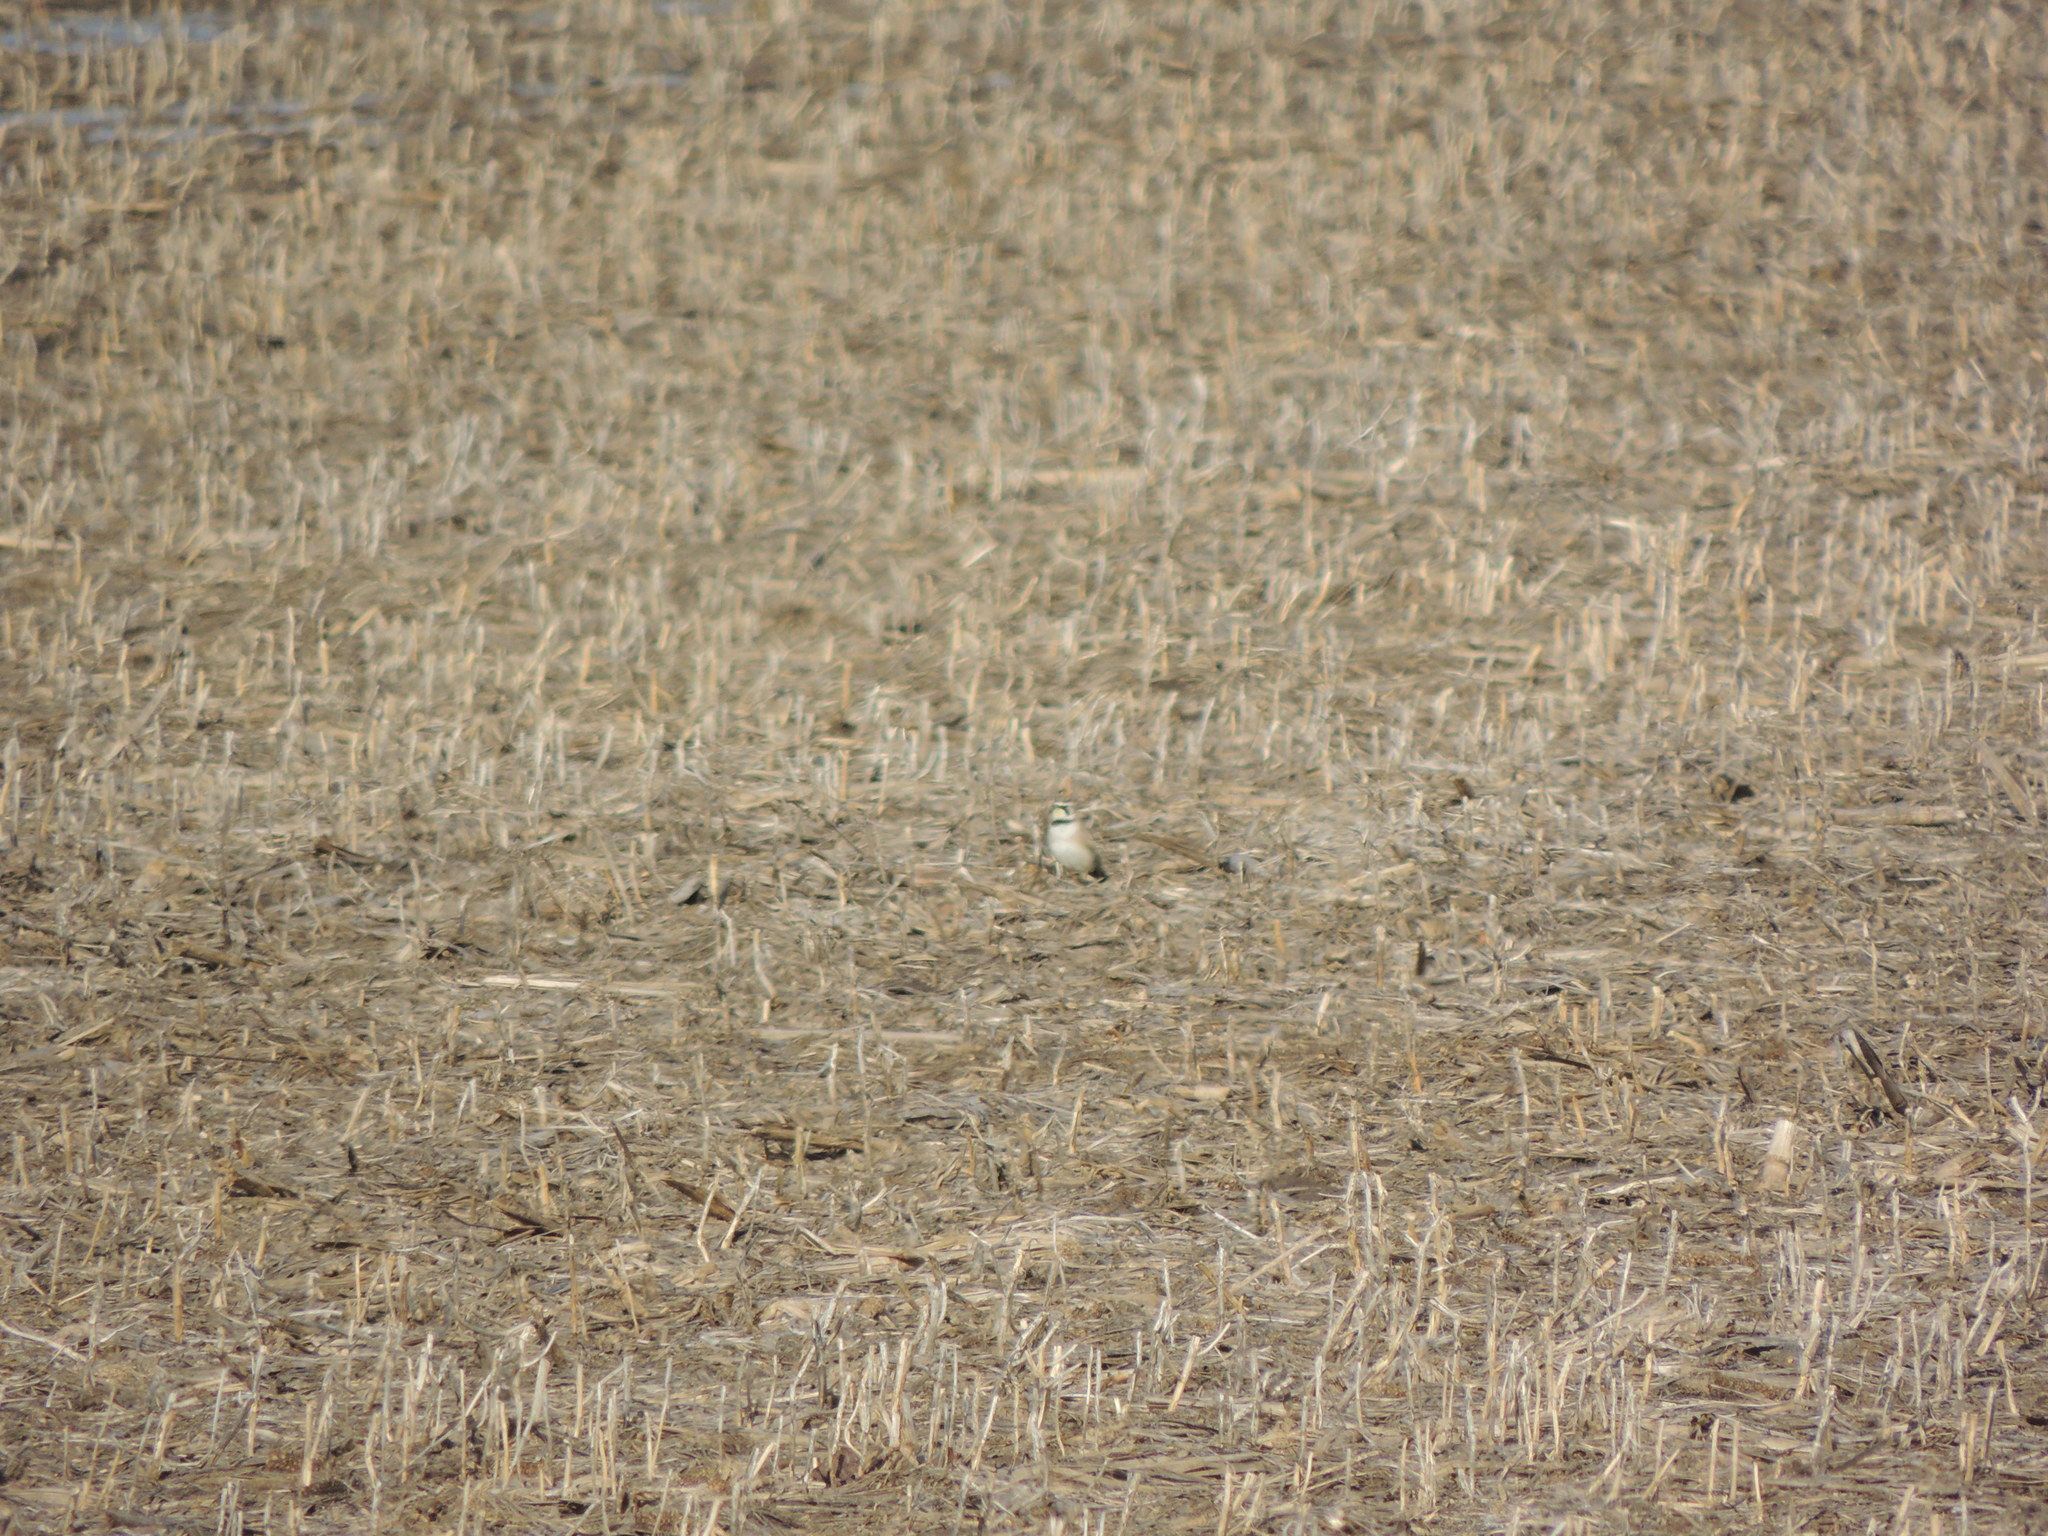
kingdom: Animalia
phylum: Chordata
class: Aves
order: Passeriformes
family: Alaudidae
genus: Eremophila
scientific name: Eremophila alpestris
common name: Horned lark
